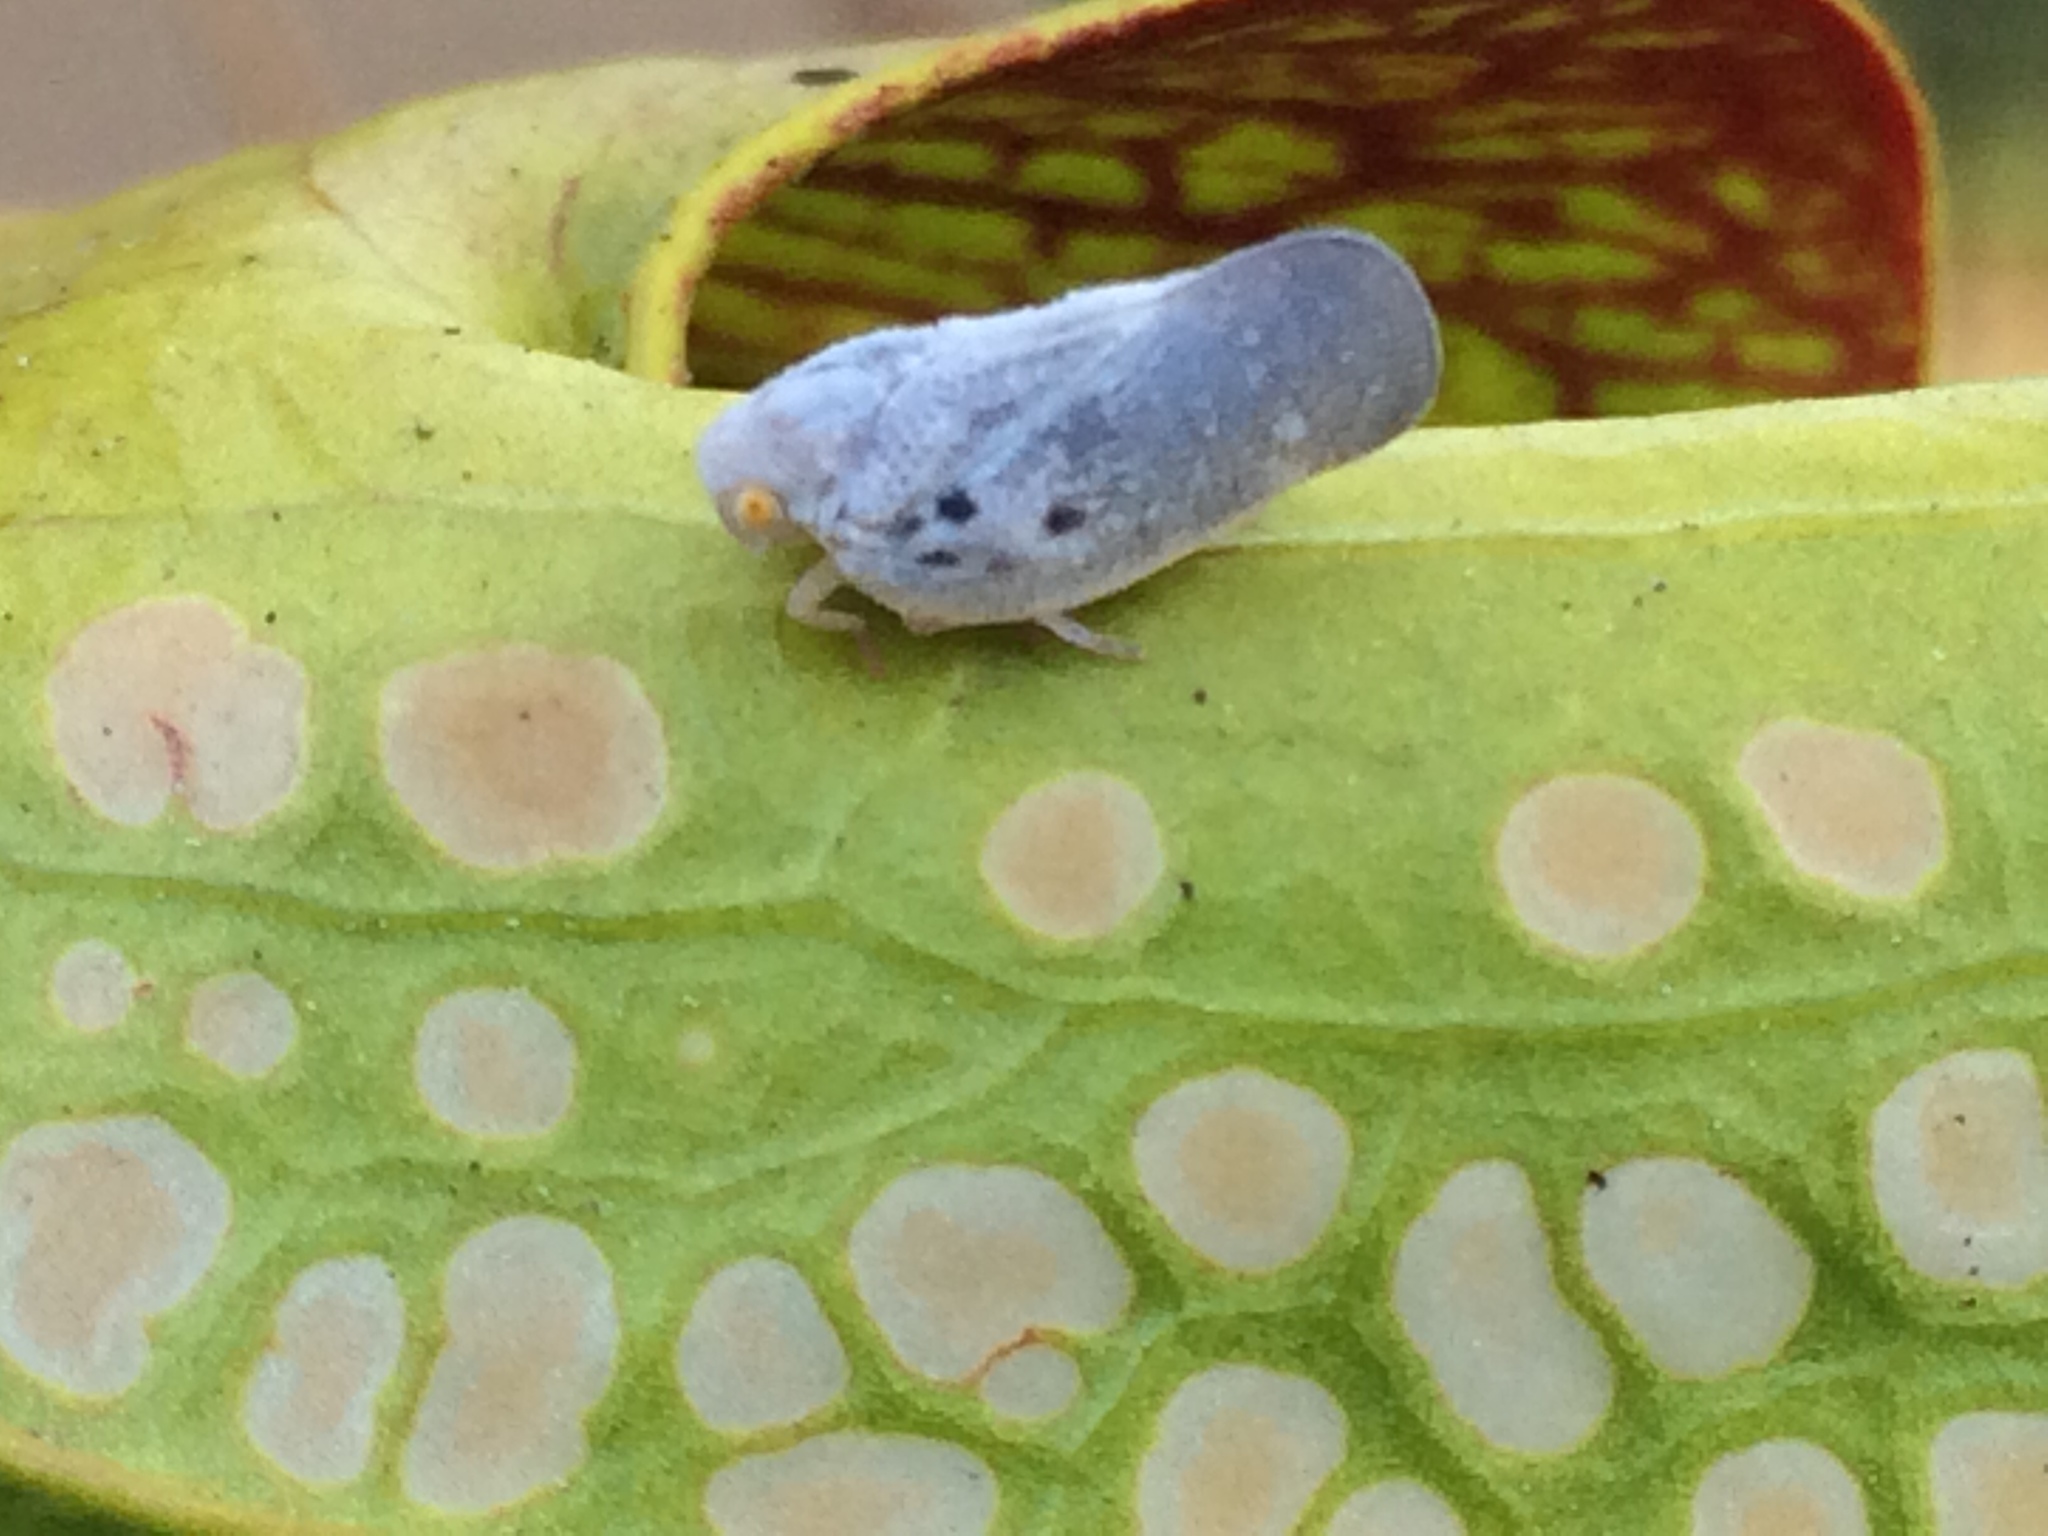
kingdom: Animalia
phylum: Arthropoda
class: Insecta
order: Hemiptera
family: Flatidae
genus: Metcalfa
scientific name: Metcalfa pruinosa
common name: Citrus flatid planthopper
